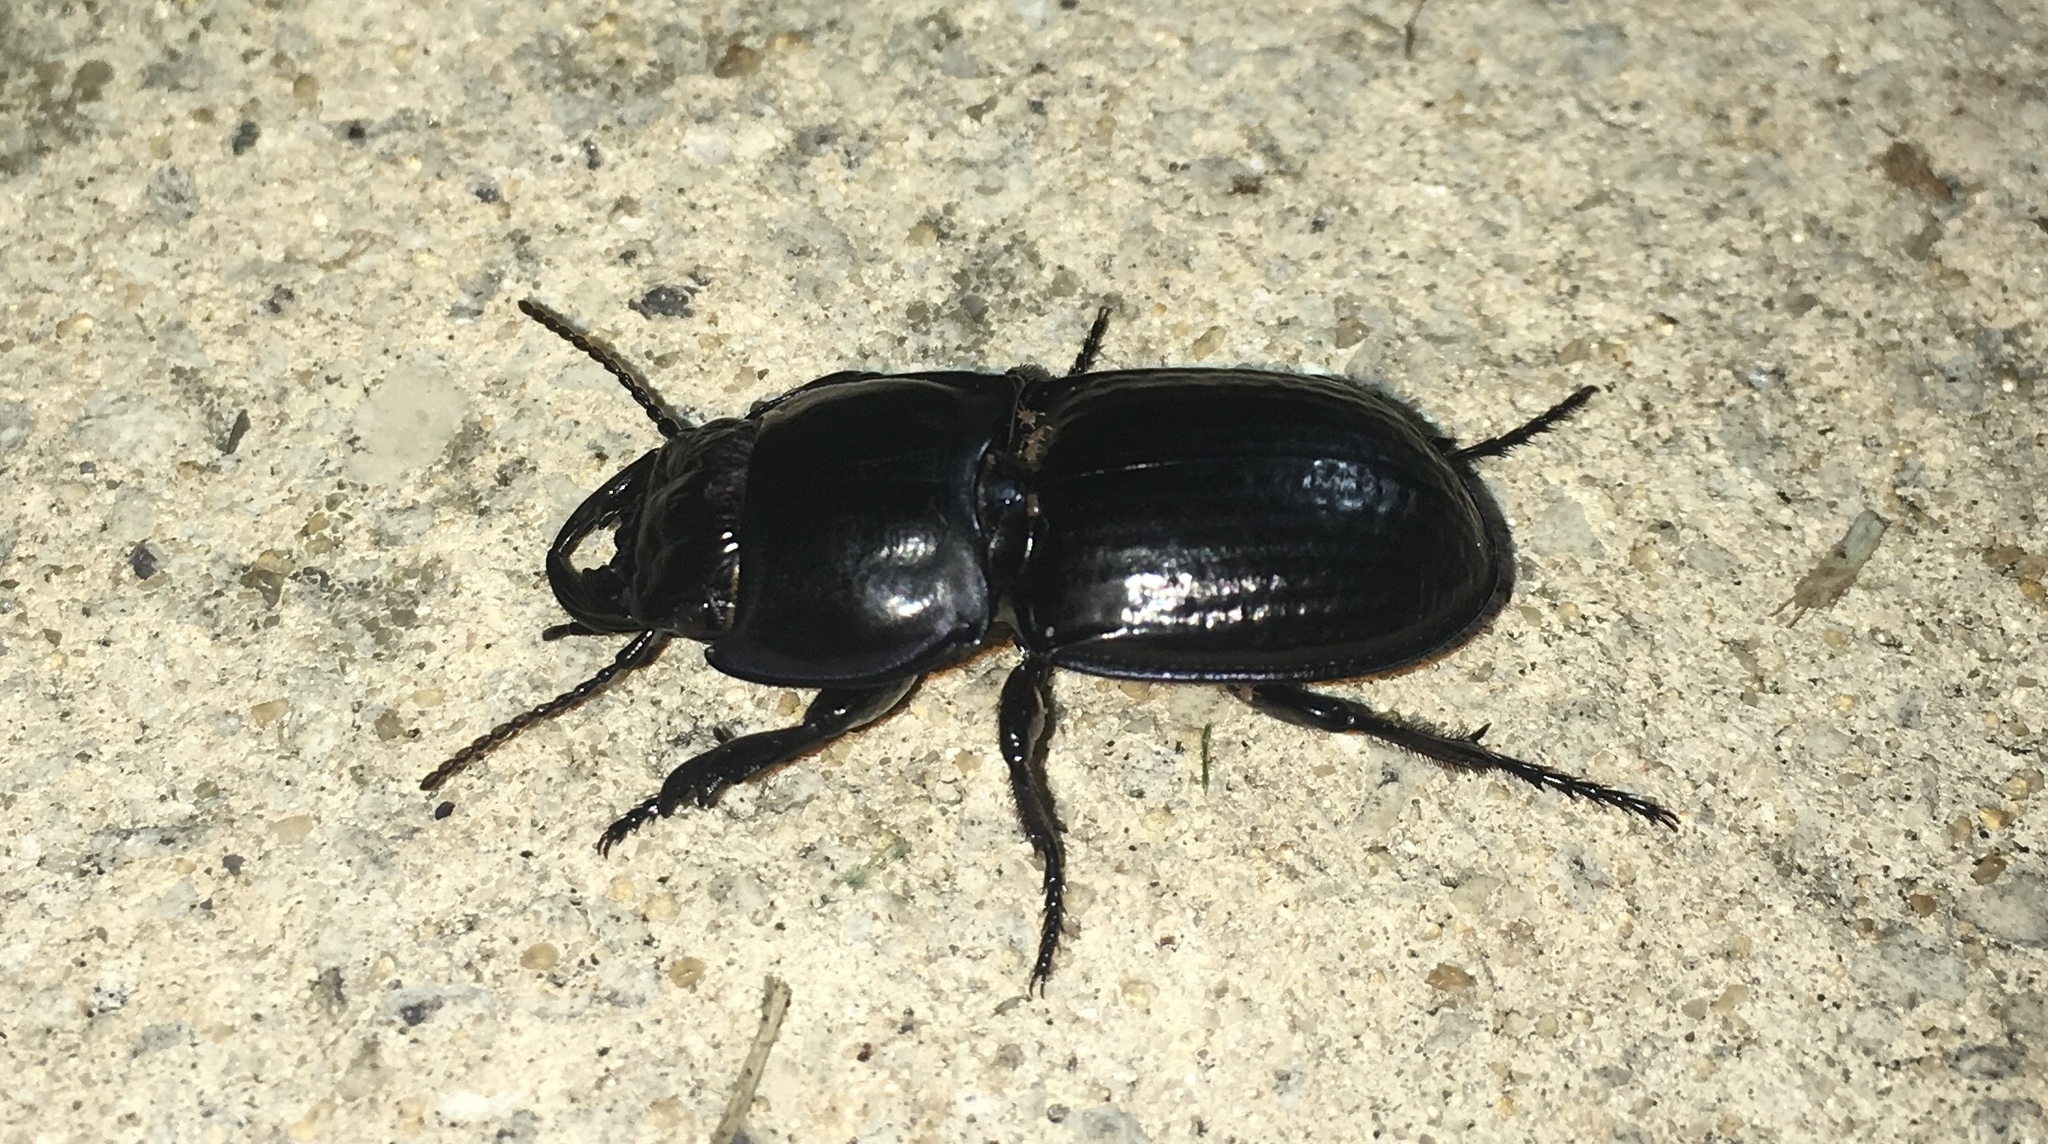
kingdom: Animalia
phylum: Arthropoda
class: Insecta
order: Coleoptera
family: Carabidae
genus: Pasimachus
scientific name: Pasimachus sublaevis
